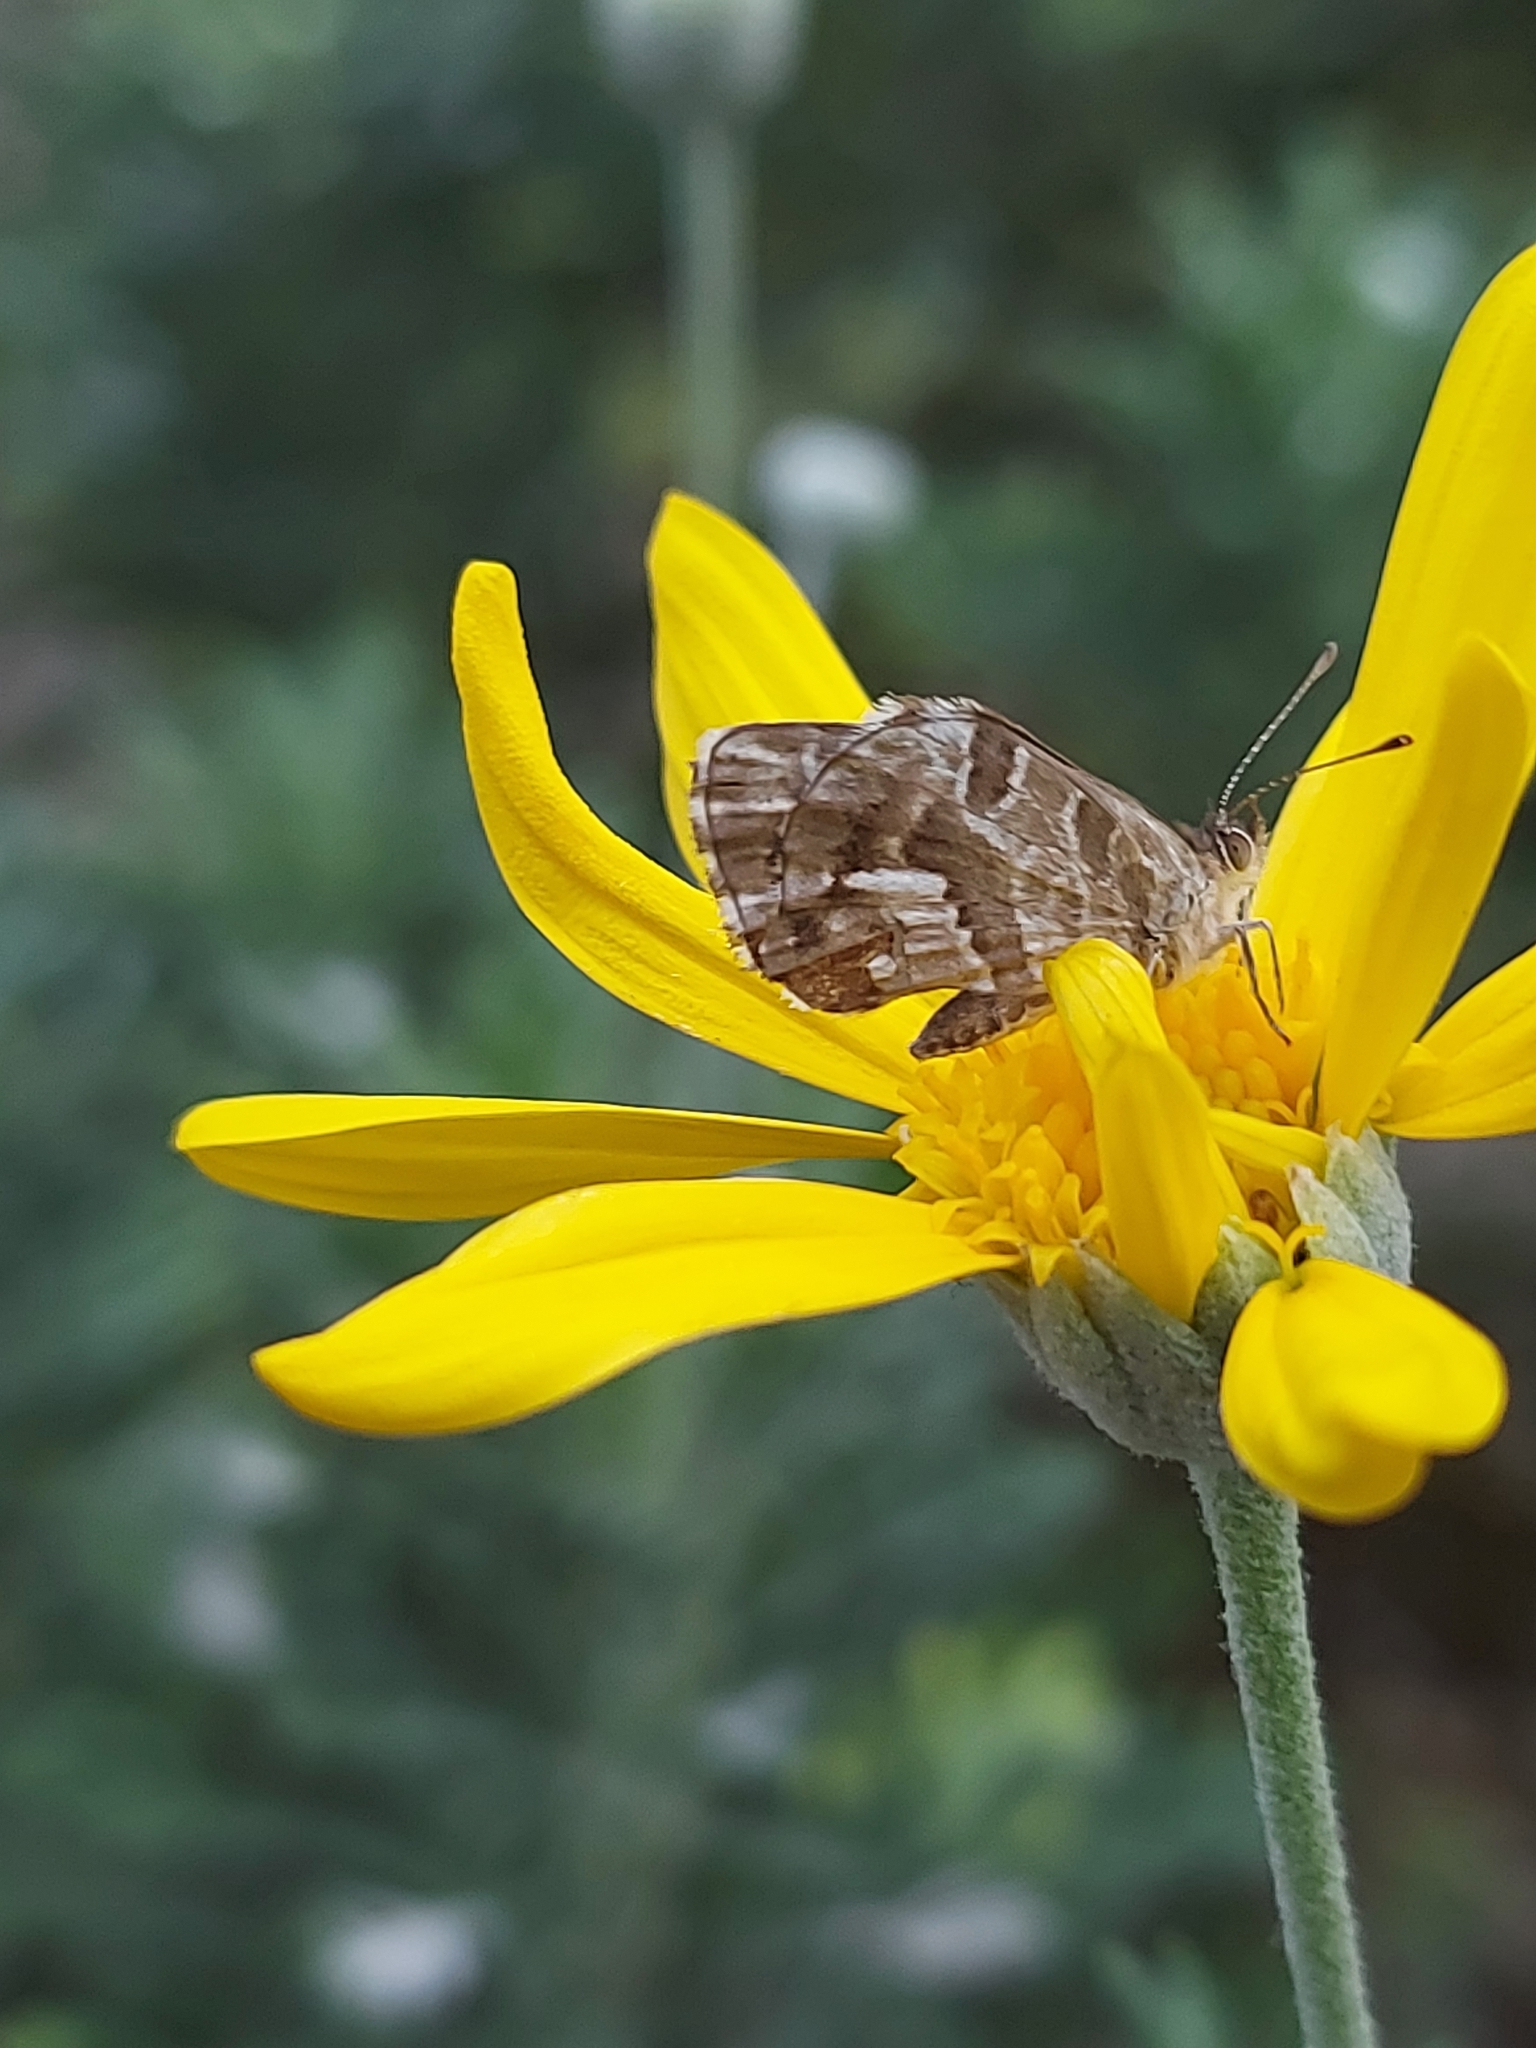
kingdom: Animalia
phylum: Arthropoda
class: Insecta
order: Lepidoptera
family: Lycaenidae
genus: Cacyreus
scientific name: Cacyreus marshalli
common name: Geranium bronze
